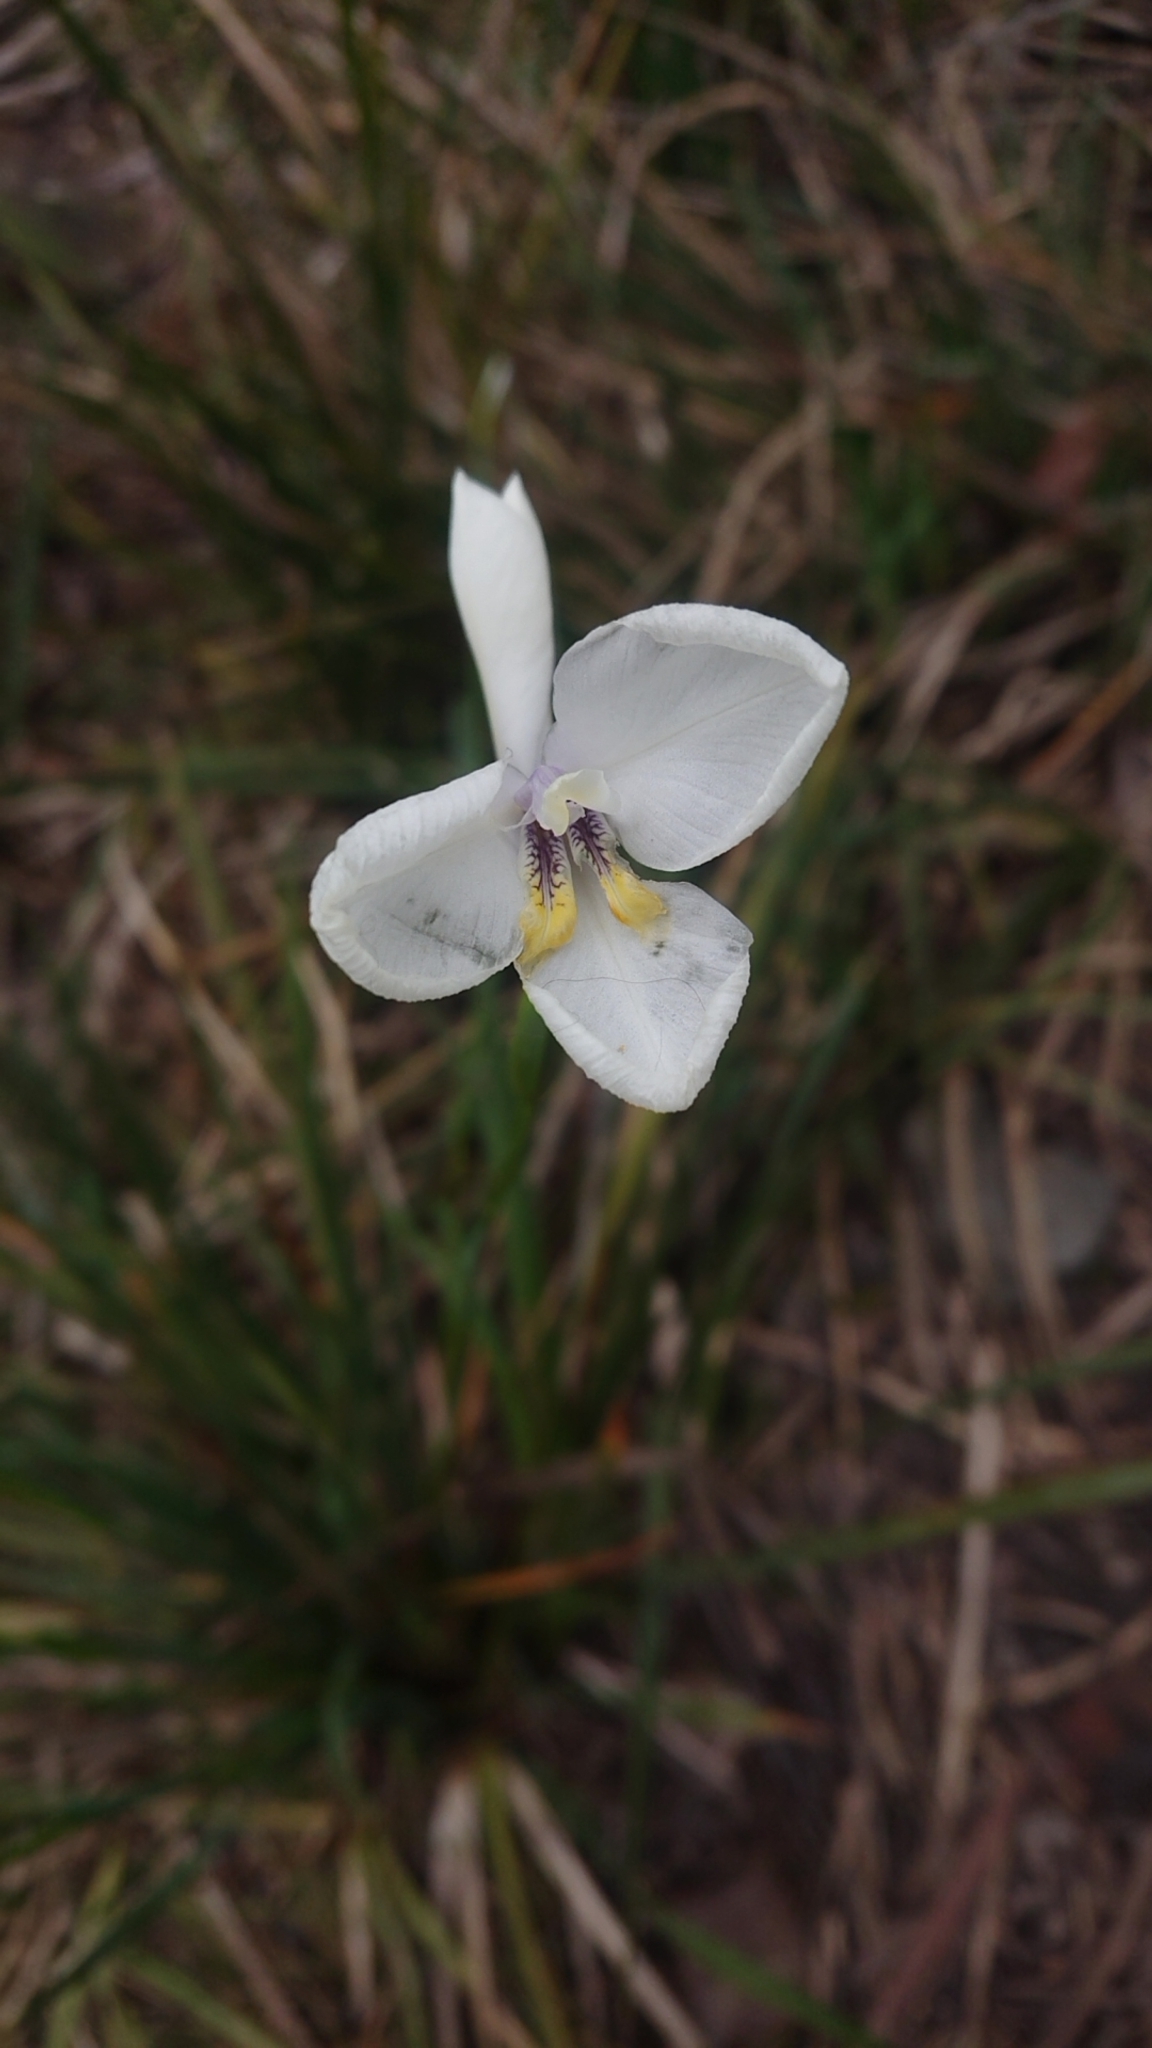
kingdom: Plantae
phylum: Tracheophyta
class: Liliopsida
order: Asparagales
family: Iridaceae
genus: Diplarrena
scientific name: Diplarrena moraea
